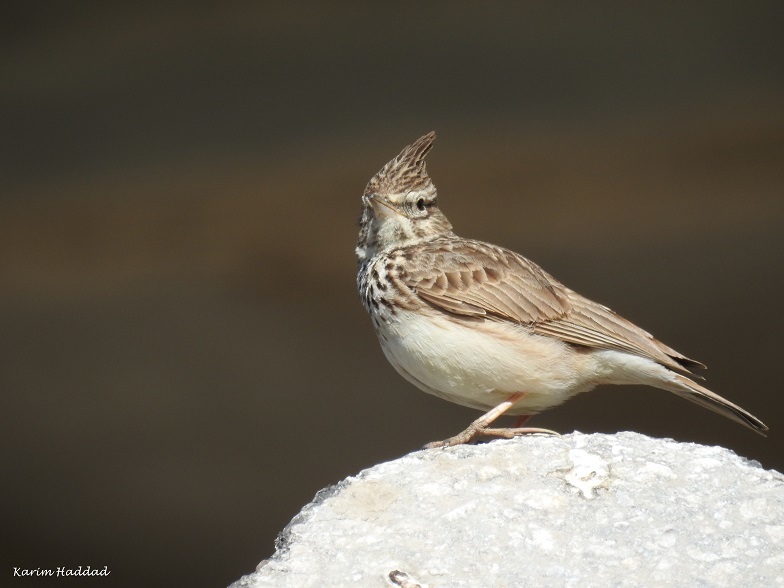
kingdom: Animalia
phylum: Chordata
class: Aves
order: Passeriformes
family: Alaudidae
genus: Galerida
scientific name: Galerida theklae
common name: Thekla lark
